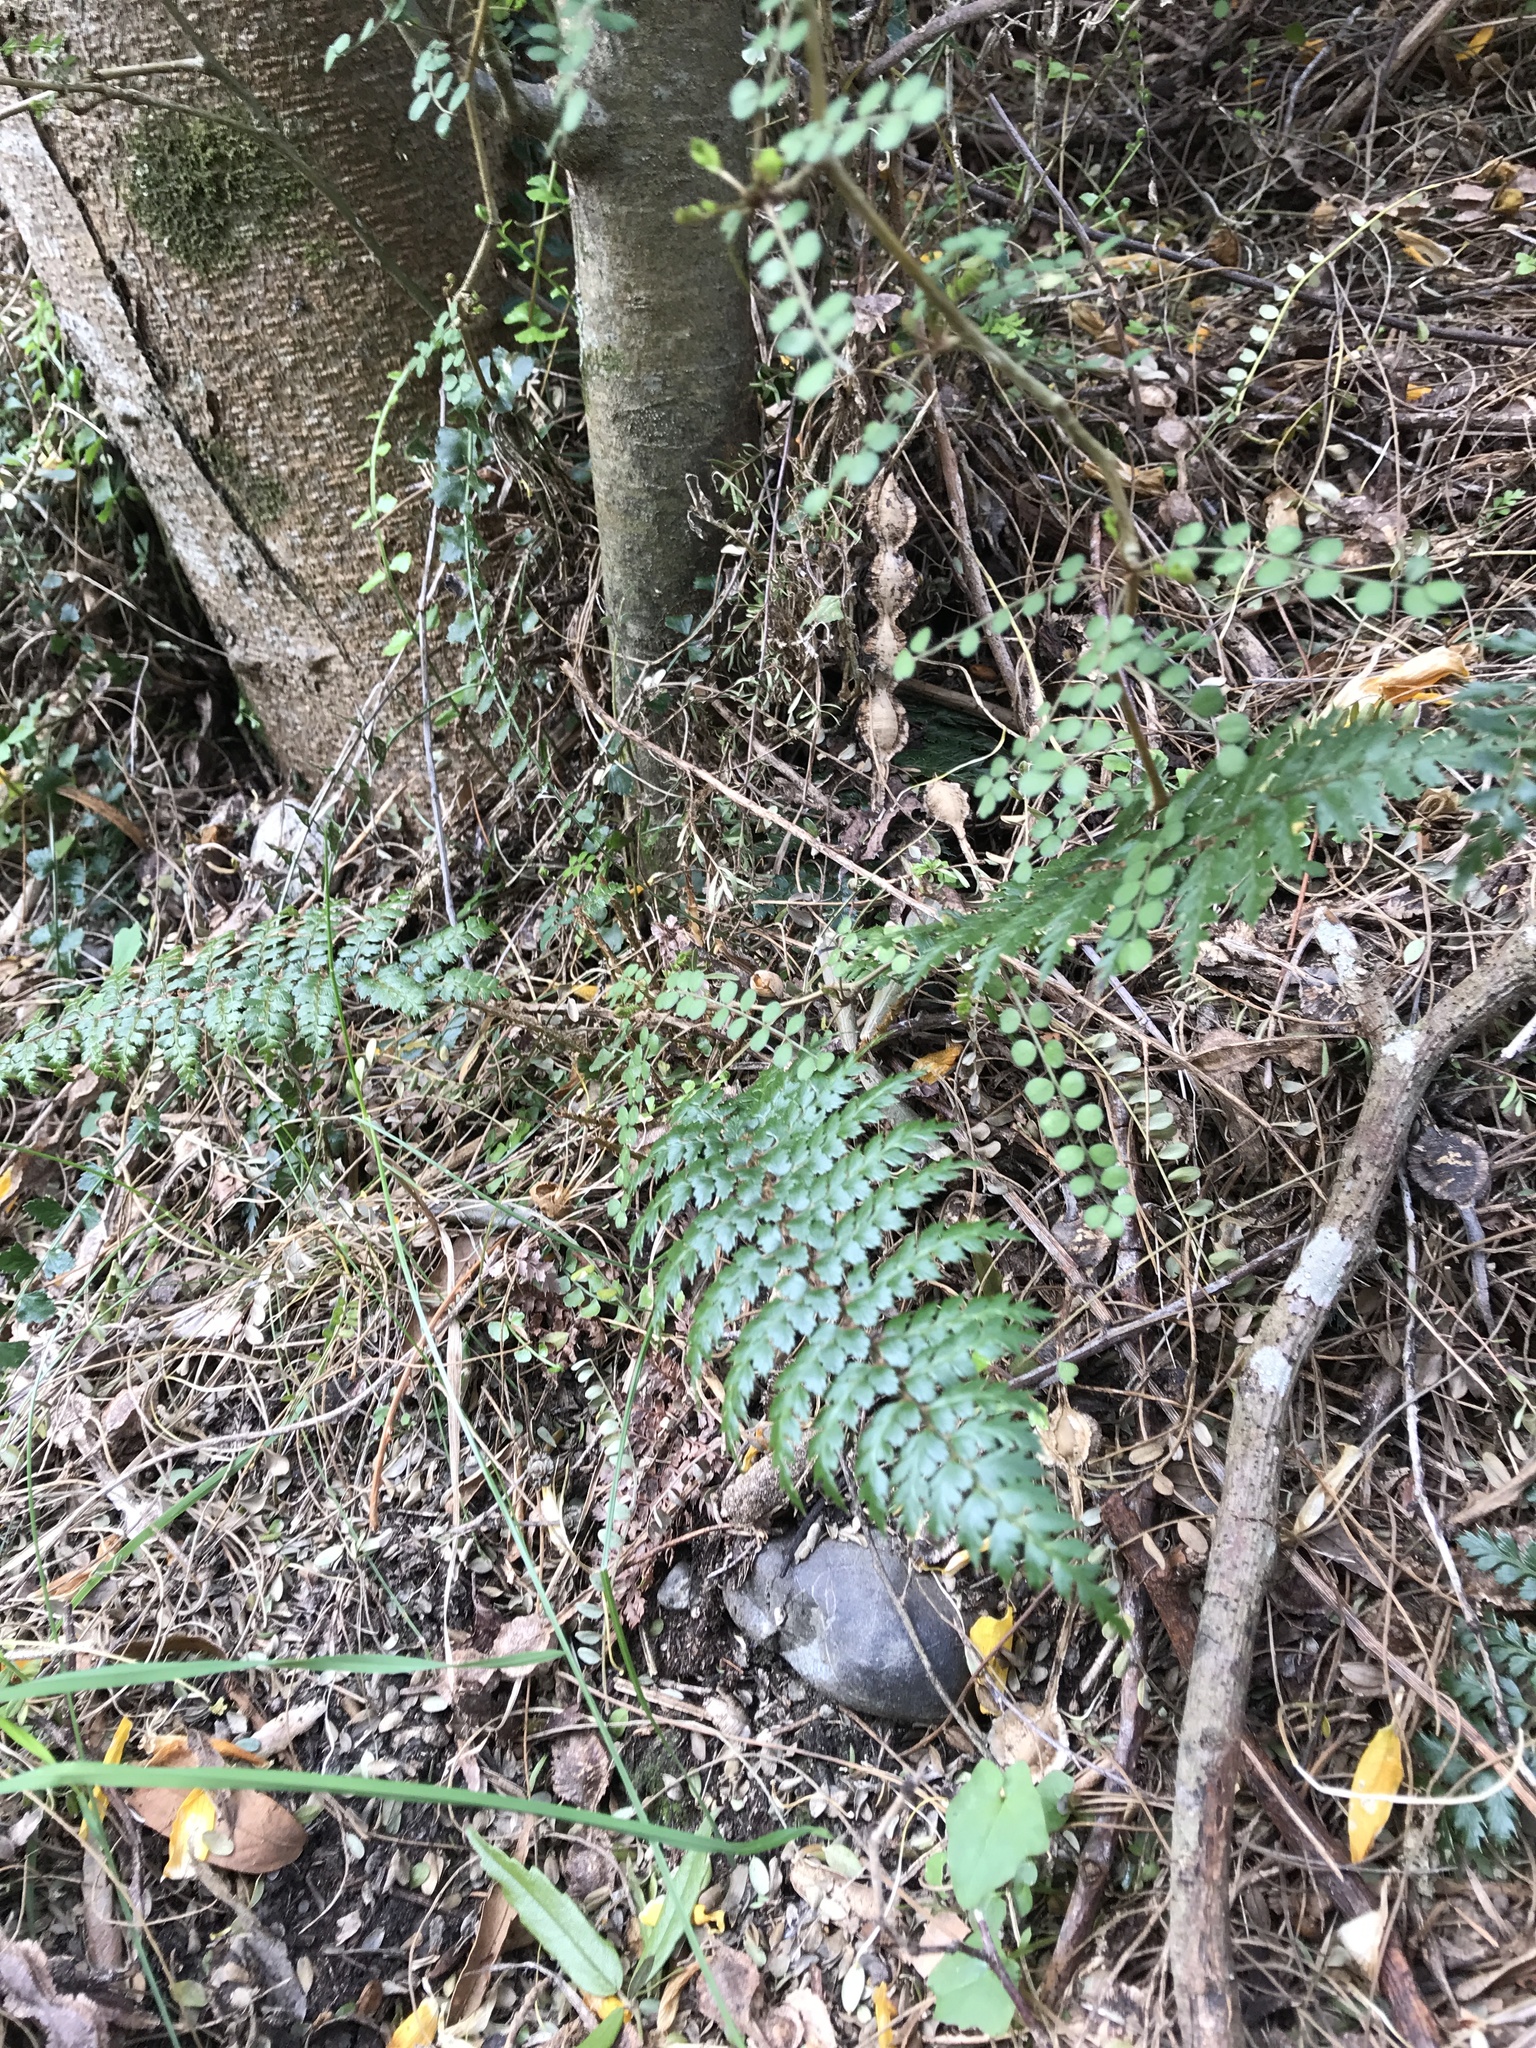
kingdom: Plantae
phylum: Tracheophyta
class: Polypodiopsida
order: Polypodiales
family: Dryopteridaceae
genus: Polystichum
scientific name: Polystichum vestitum
